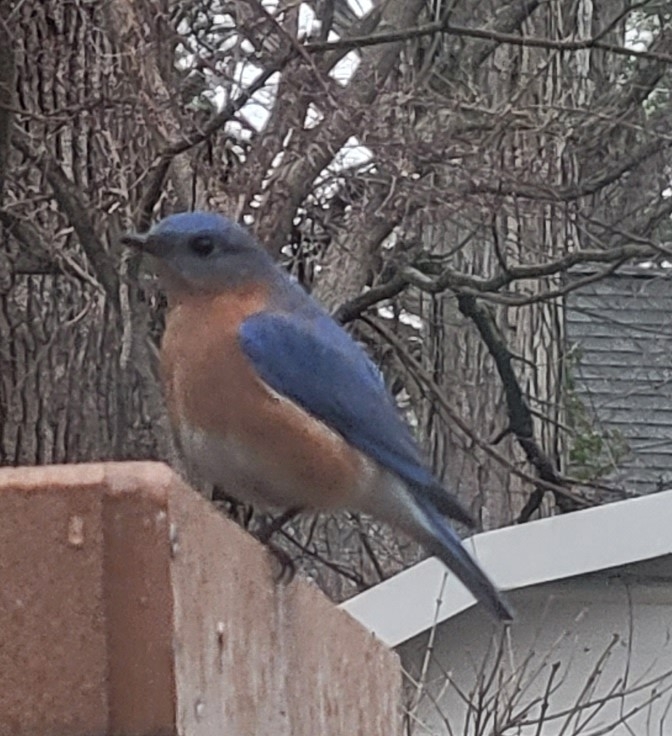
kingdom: Animalia
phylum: Chordata
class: Aves
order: Passeriformes
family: Turdidae
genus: Sialia
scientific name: Sialia sialis
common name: Eastern bluebird
